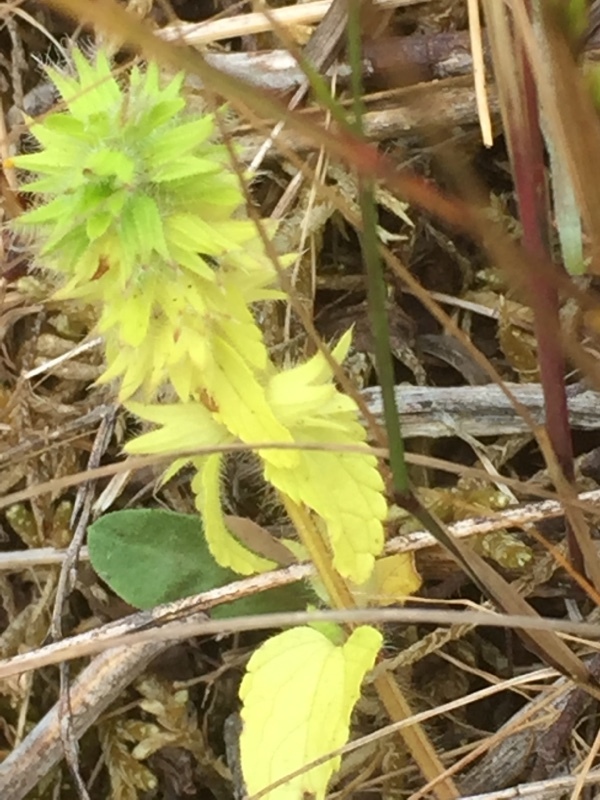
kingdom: Plantae
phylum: Tracheophyta
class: Magnoliopsida
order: Lamiales
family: Lamiaceae
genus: Stachys
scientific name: Stachys arvensis
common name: Field woundwort
